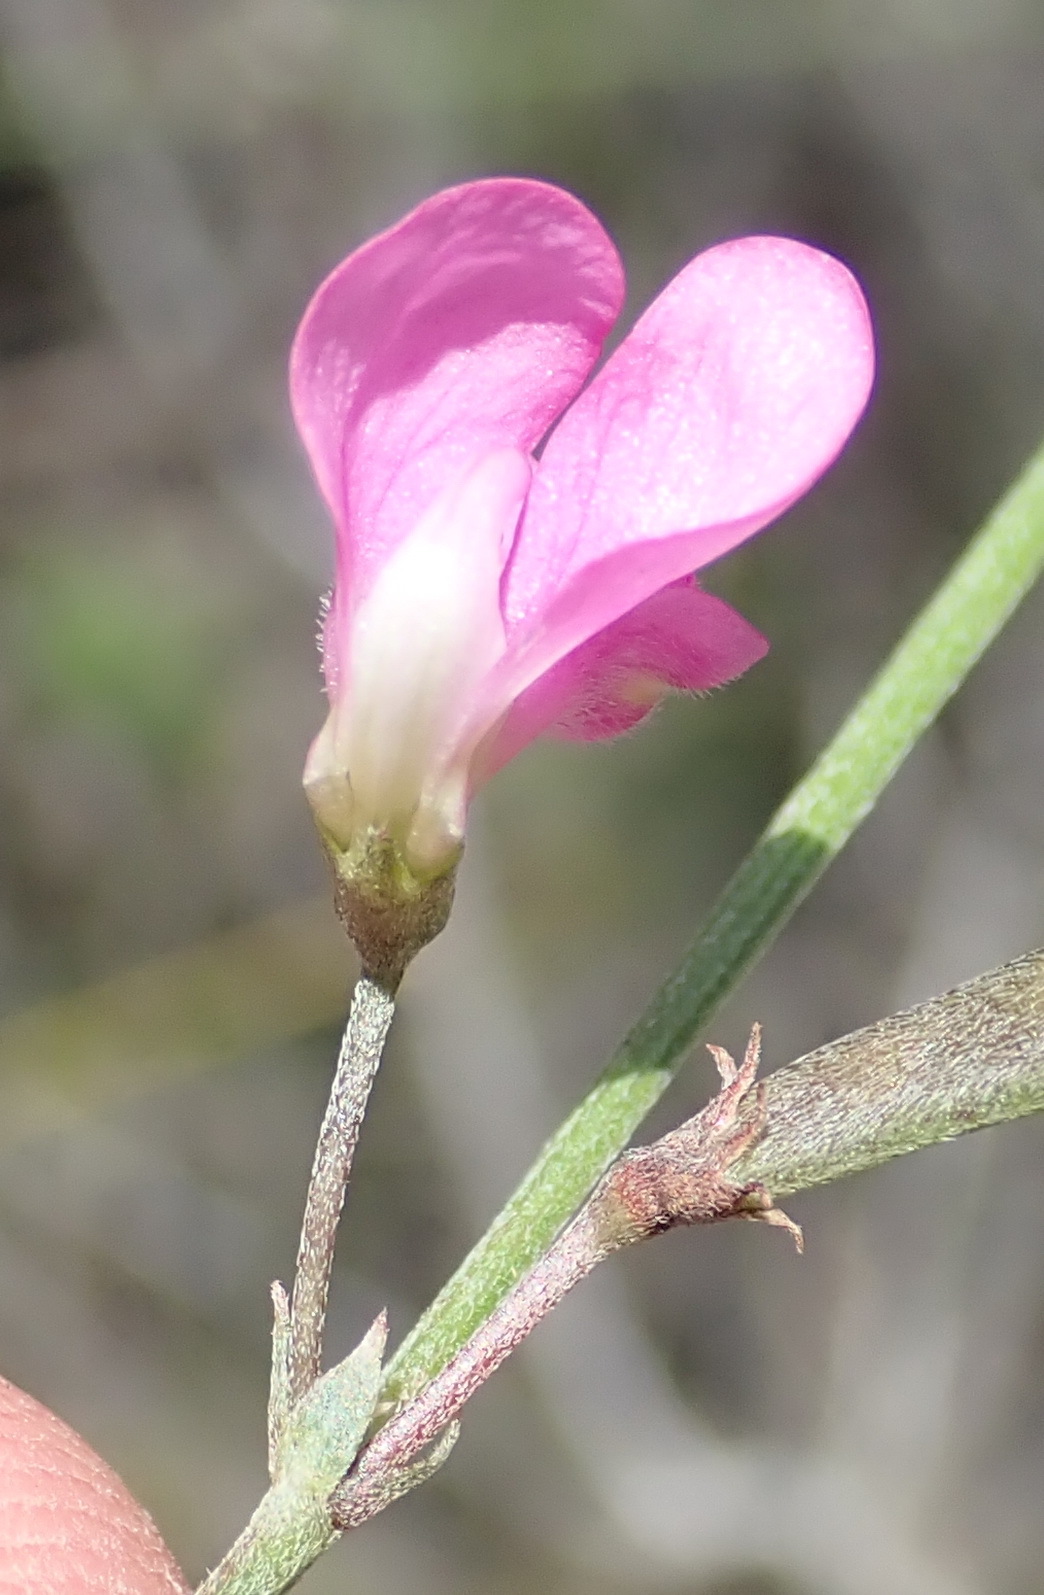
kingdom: Plantae
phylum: Tracheophyta
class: Magnoliopsida
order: Fabales
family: Fabaceae
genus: Tephrosia
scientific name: Tephrosia capensis
